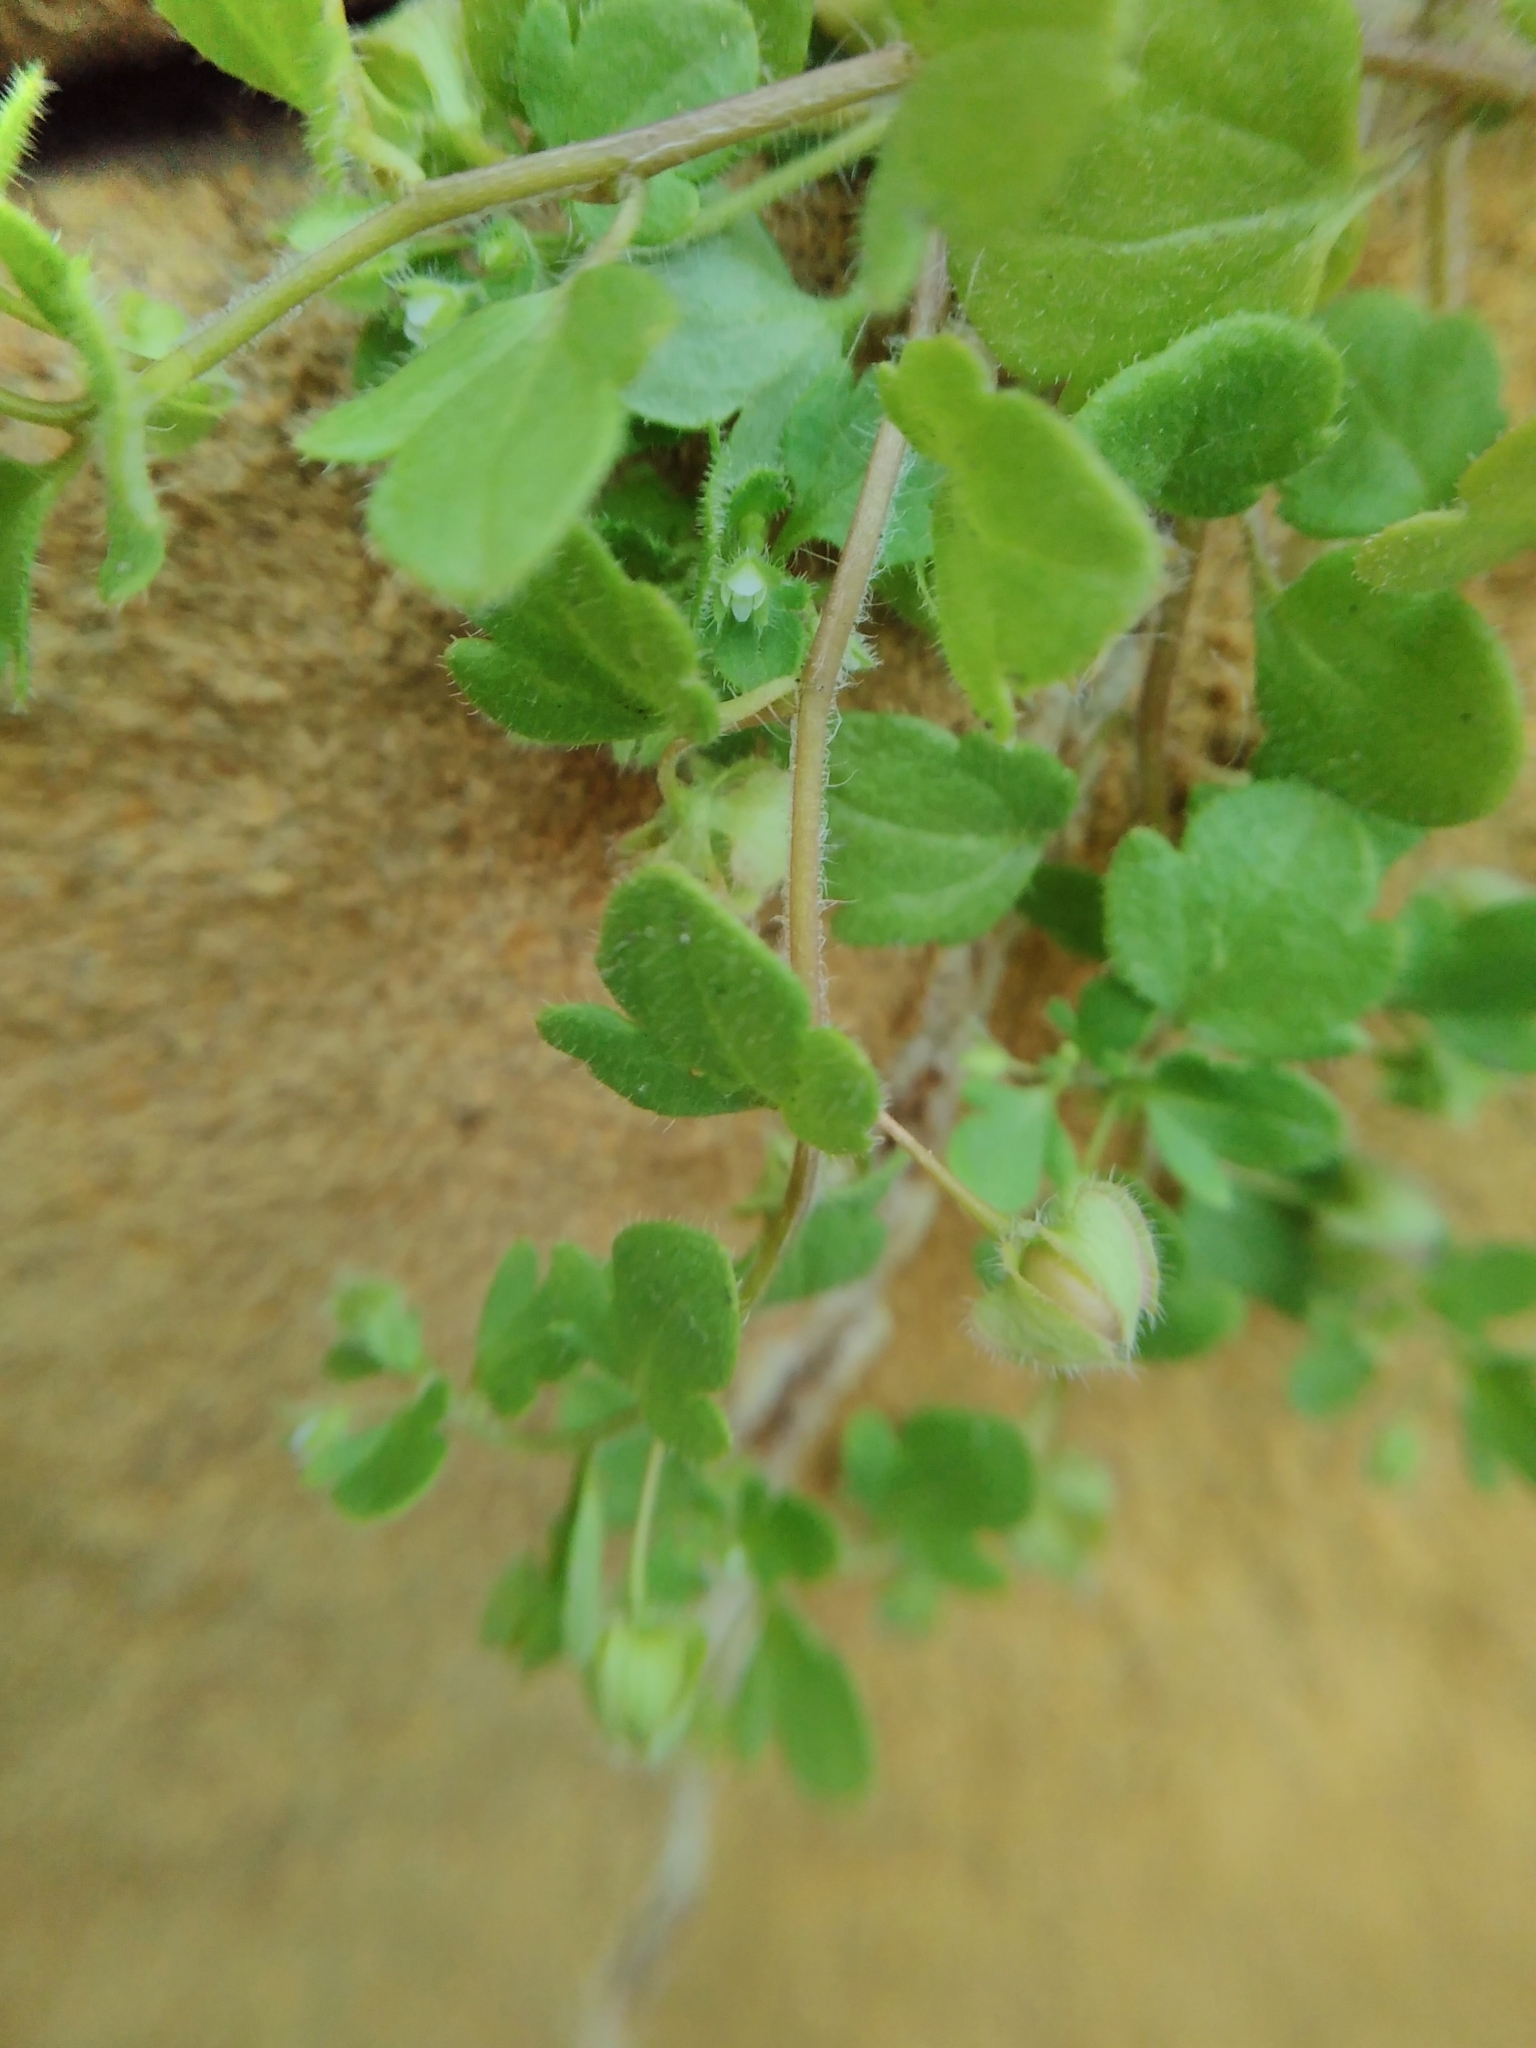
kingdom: Plantae
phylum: Tracheophyta
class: Magnoliopsida
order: Lamiales
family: Plantaginaceae
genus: Veronica
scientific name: Veronica hederifolia
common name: Ivy-leaved speedwell
